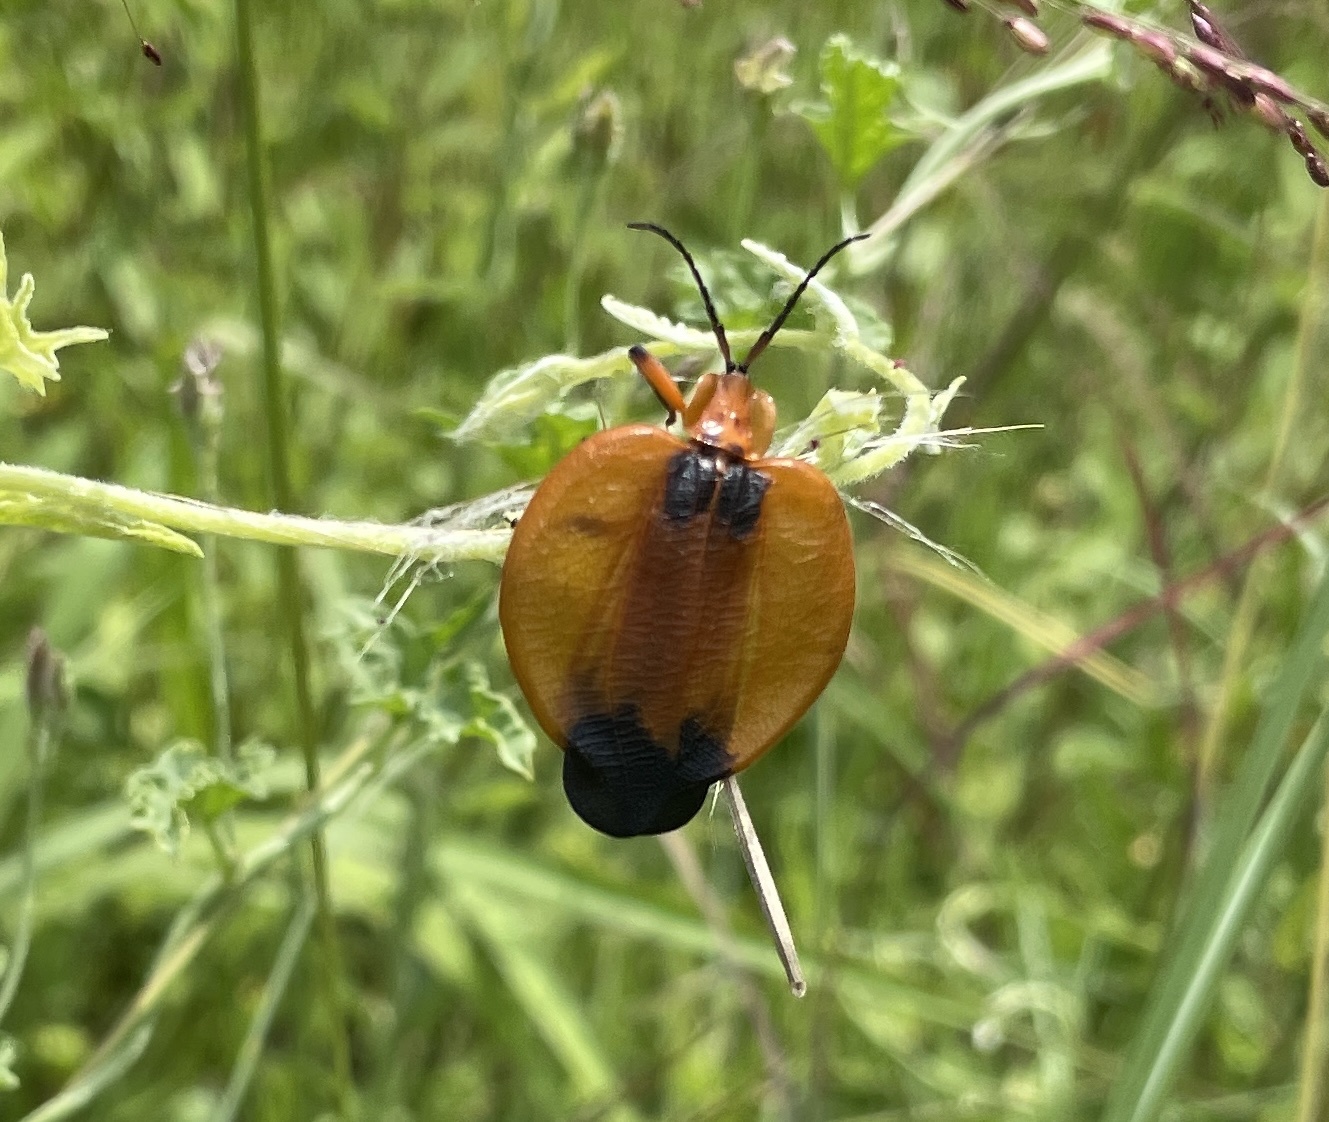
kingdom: Animalia
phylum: Arthropoda
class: Insecta
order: Coleoptera
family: Lycidae
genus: Lycus
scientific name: Lycus
